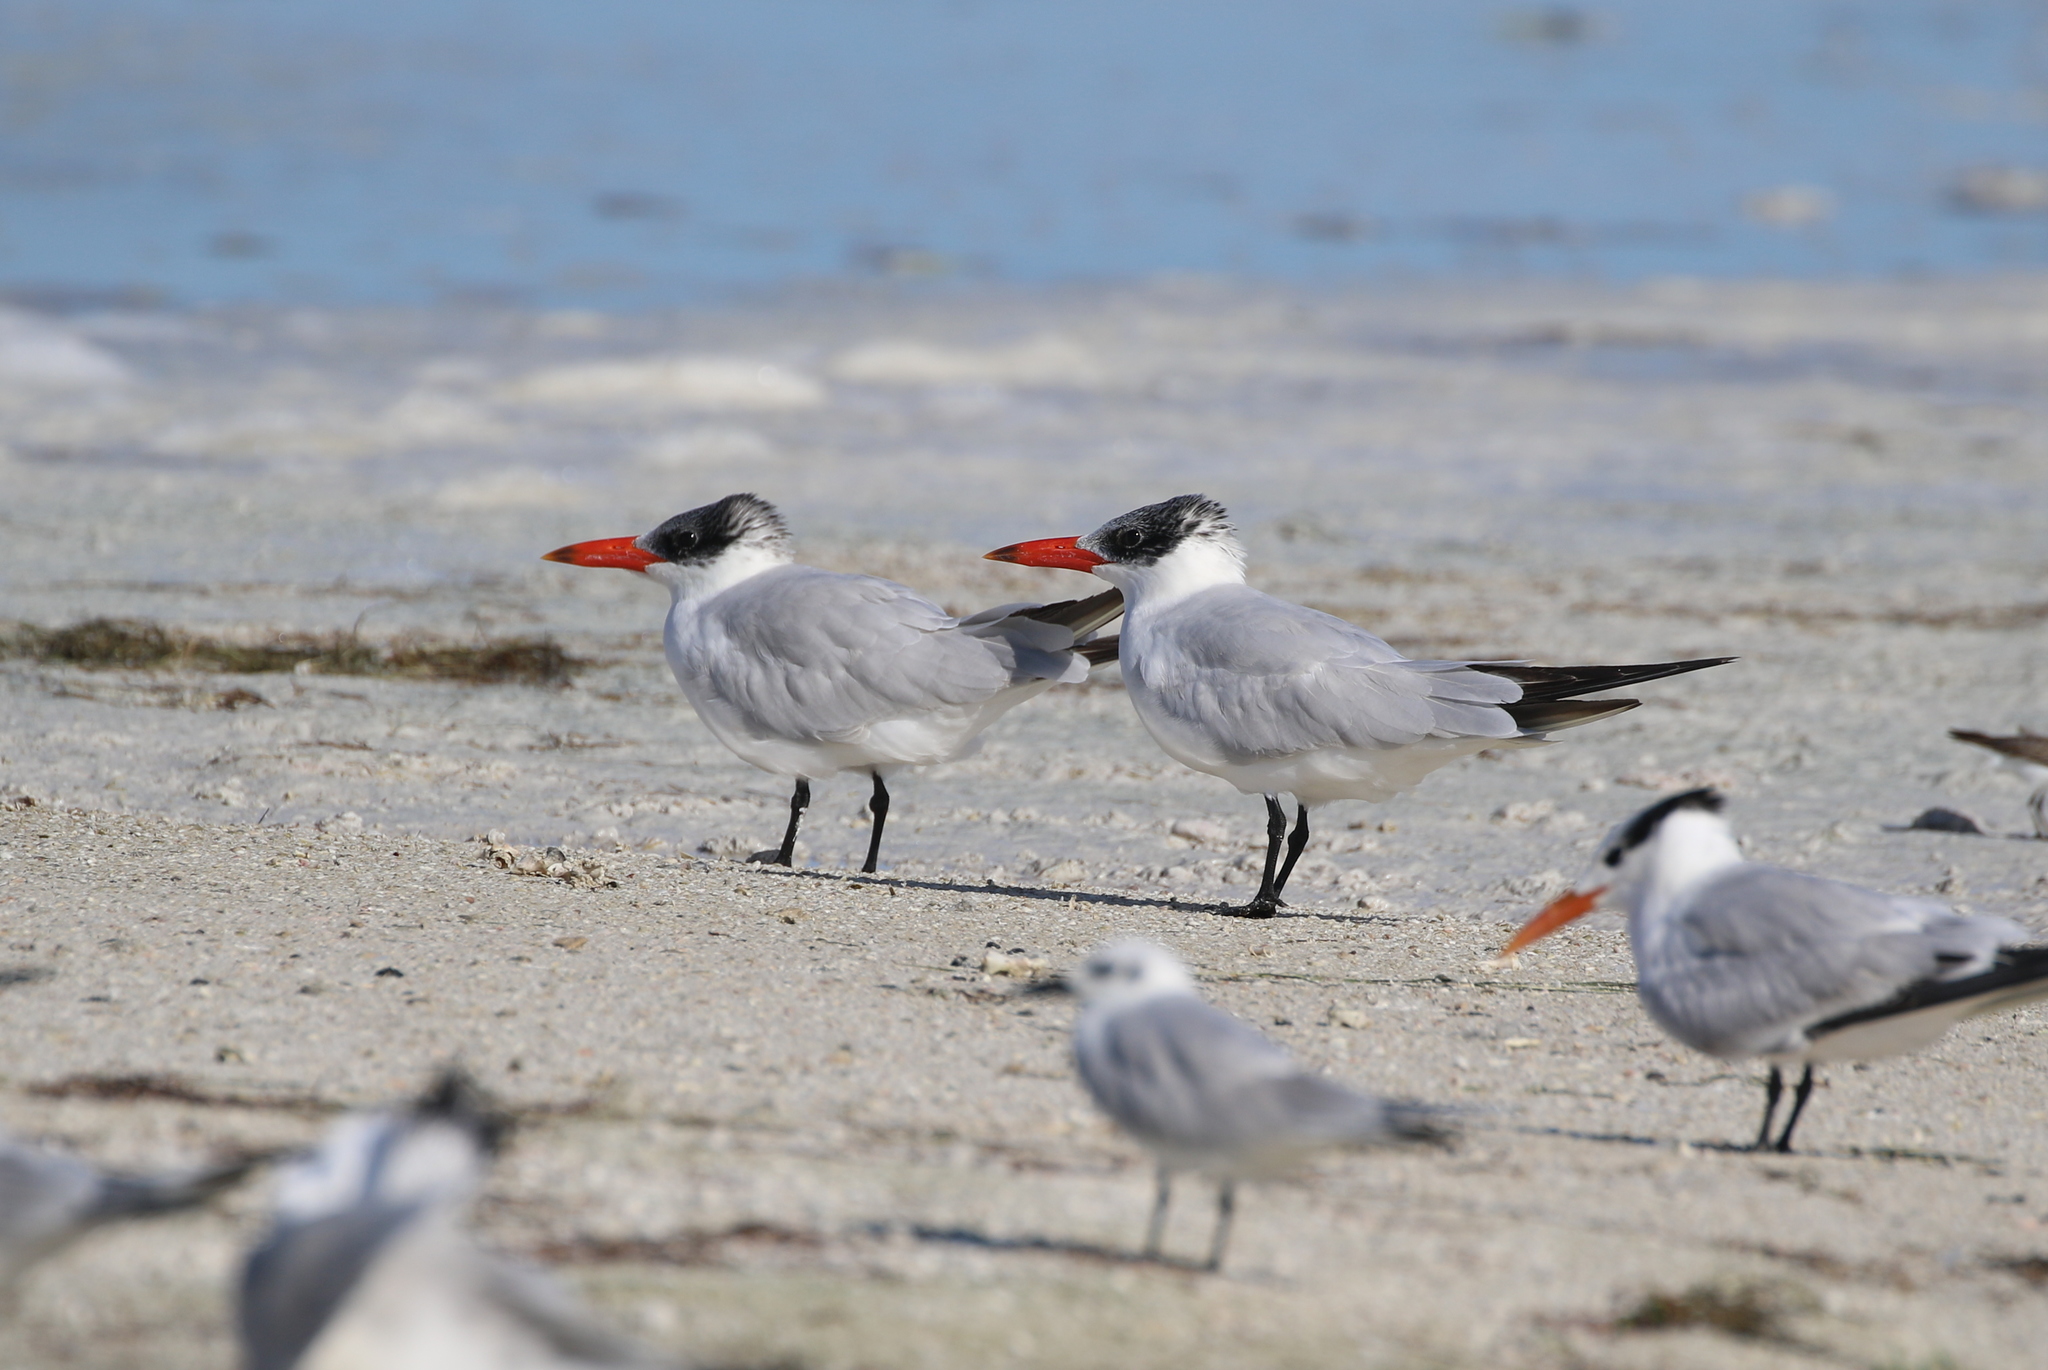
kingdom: Animalia
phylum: Chordata
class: Aves
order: Charadriiformes
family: Laridae
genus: Hydroprogne
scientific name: Hydroprogne caspia
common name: Caspian tern
